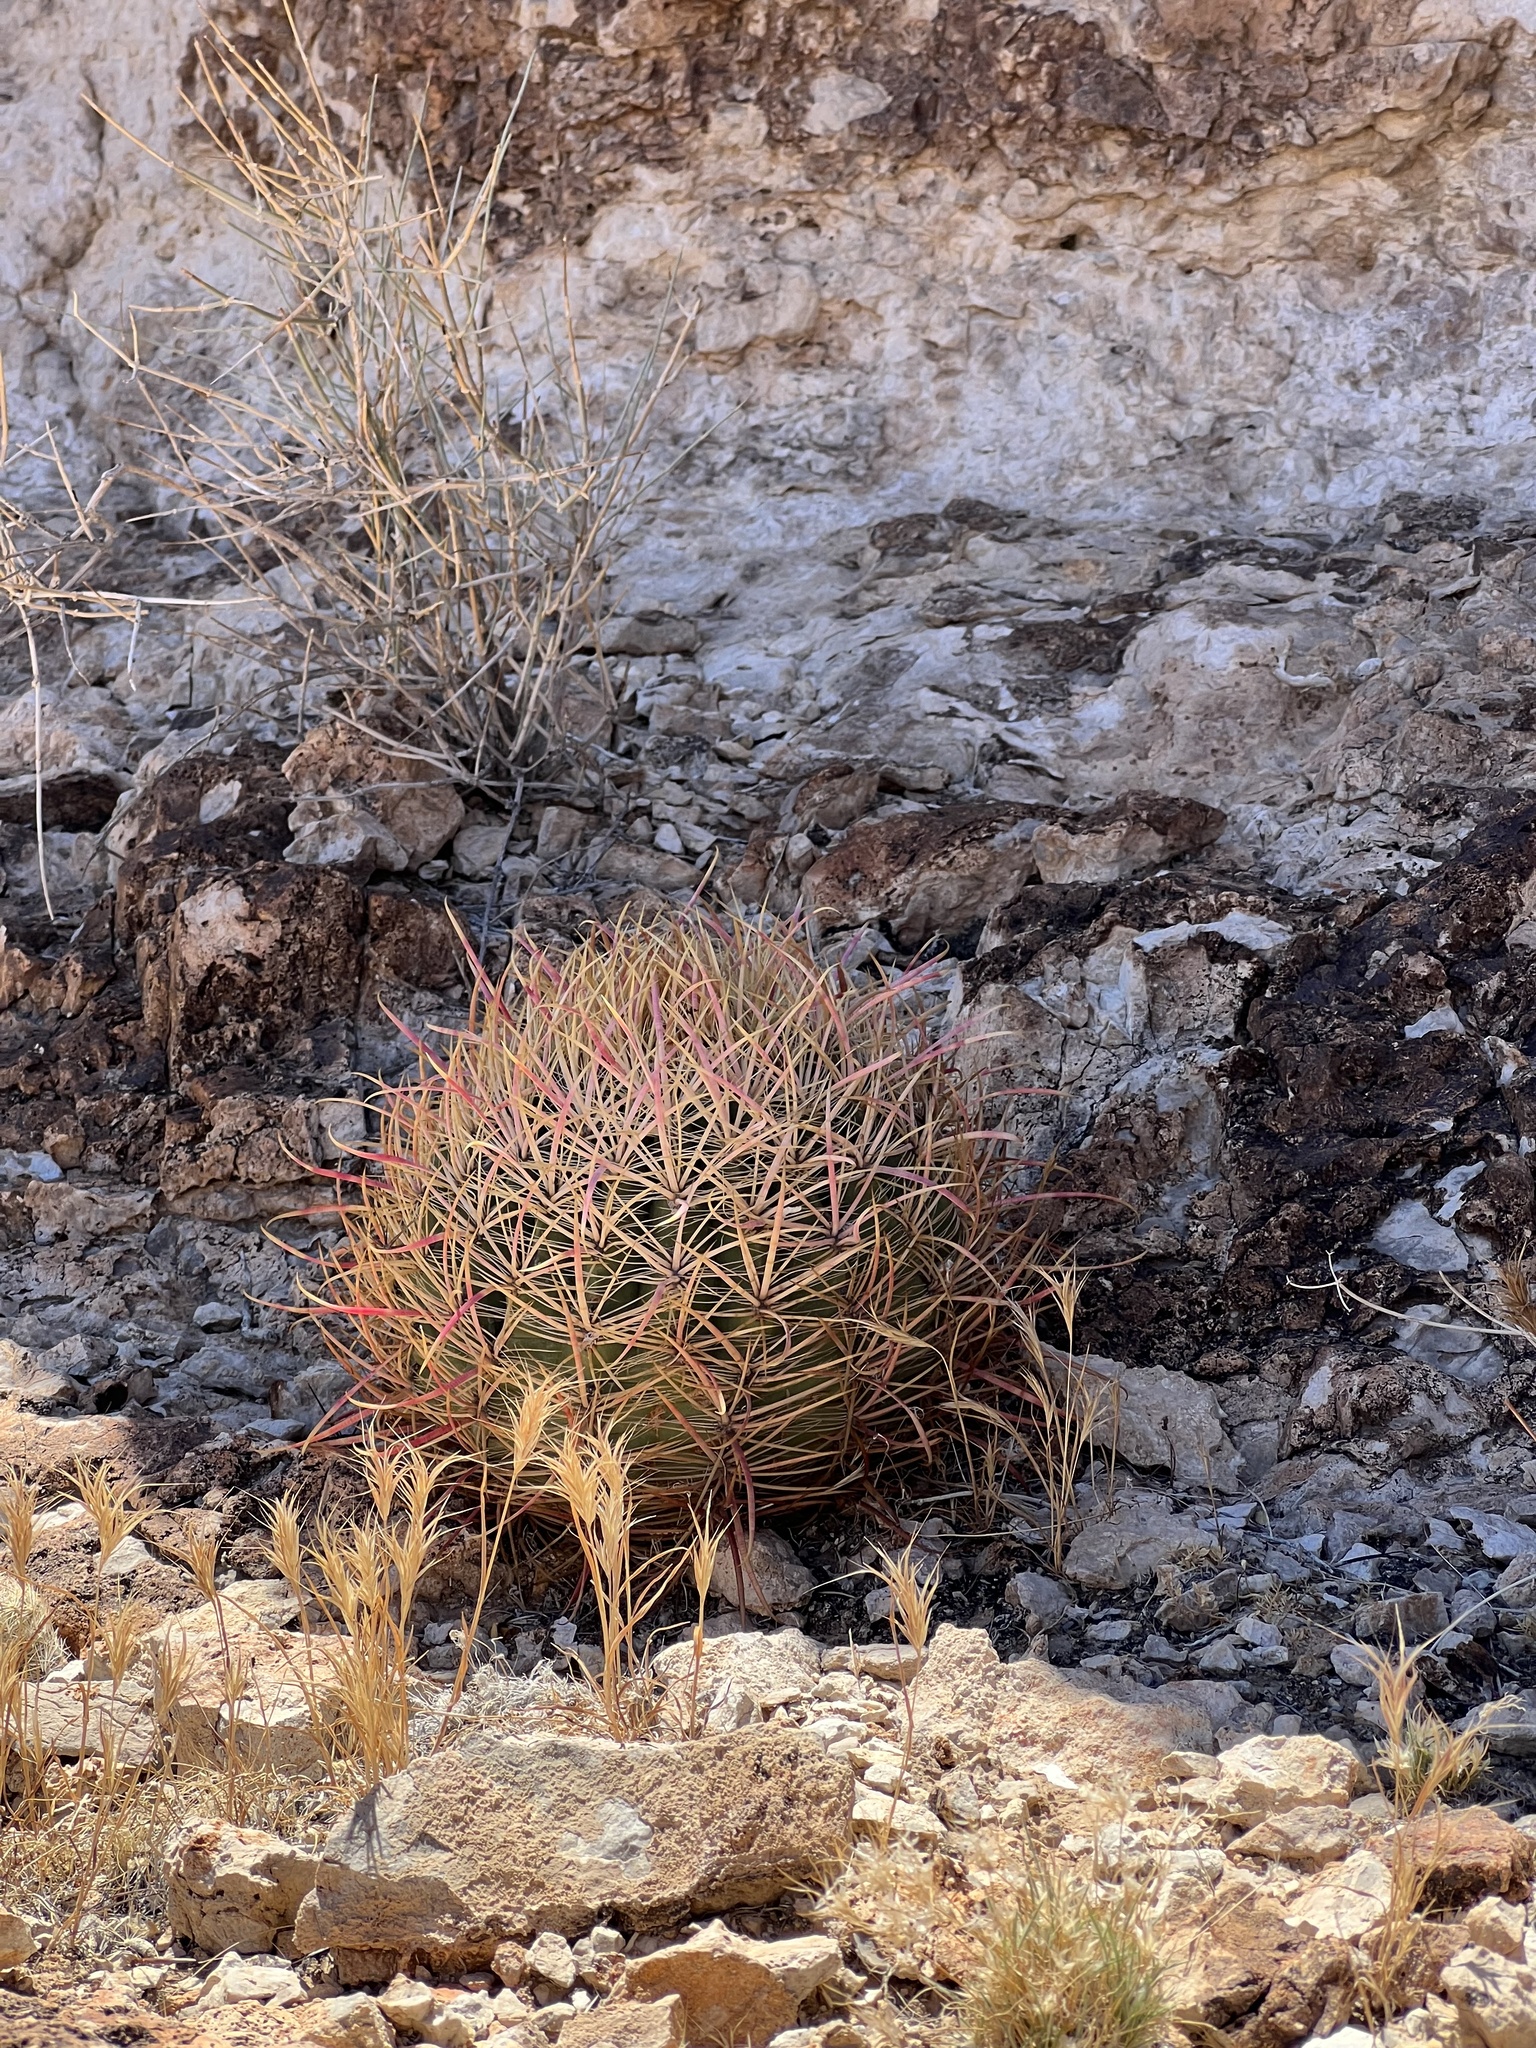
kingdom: Plantae
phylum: Tracheophyta
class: Magnoliopsida
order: Caryophyllales
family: Cactaceae
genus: Ferocactus
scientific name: Ferocactus cylindraceus
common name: California barrel cactus
